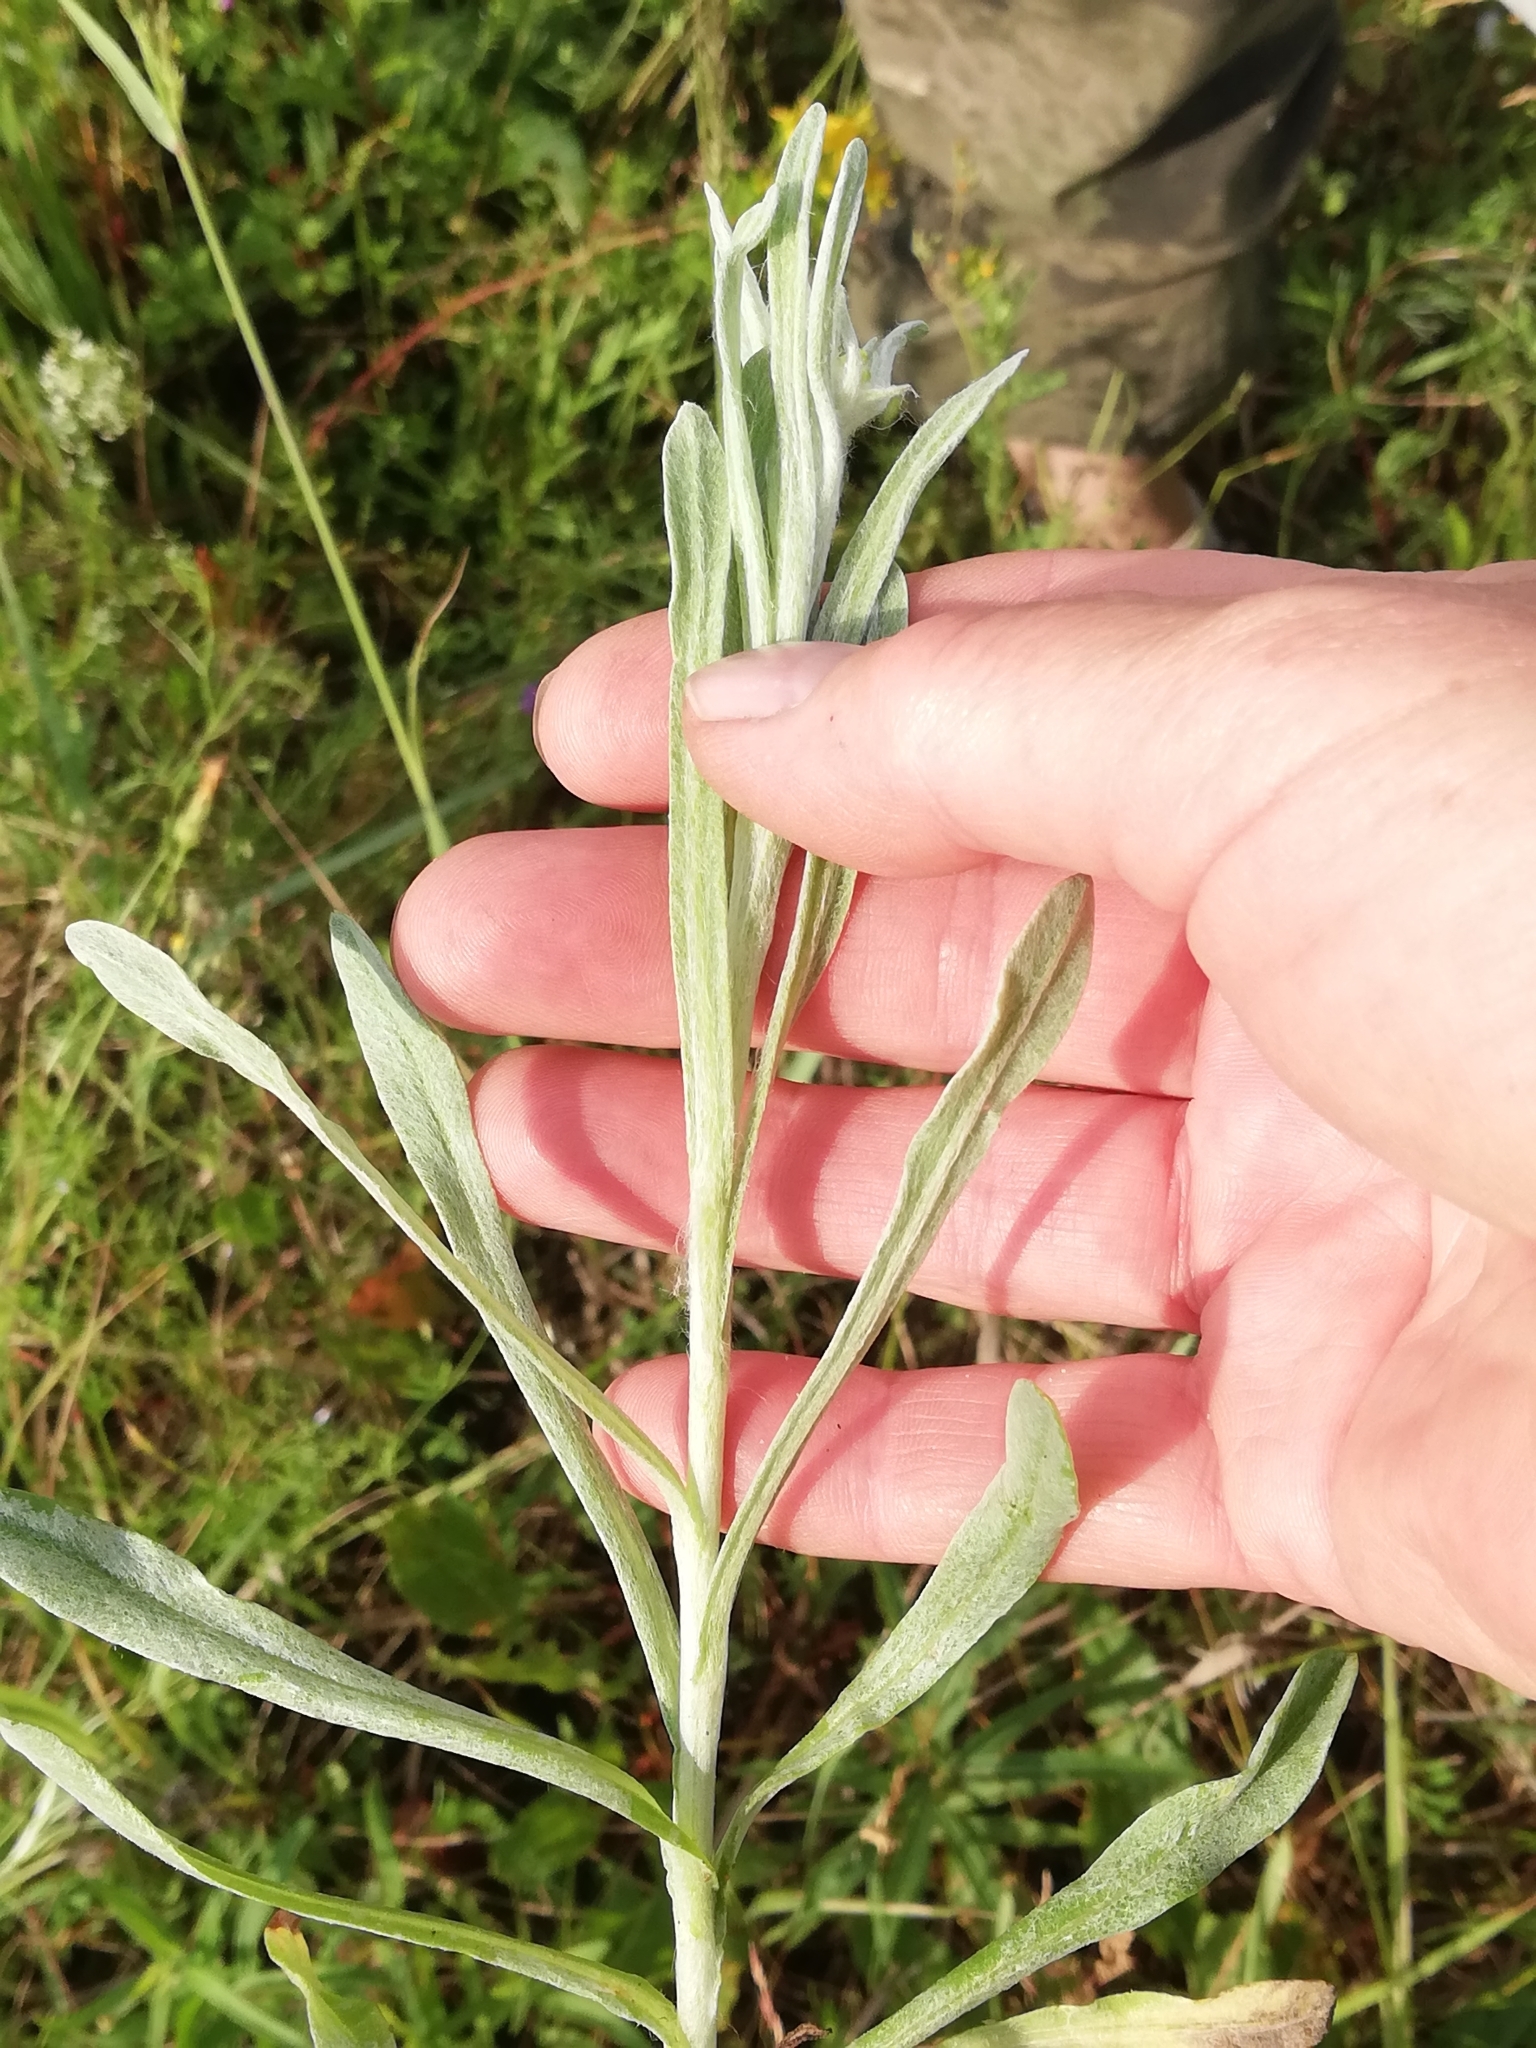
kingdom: Plantae
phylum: Tracheophyta
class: Magnoliopsida
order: Asterales
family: Asteraceae
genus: Helichrysum
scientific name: Helichrysum arenarium
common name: Strawflower
